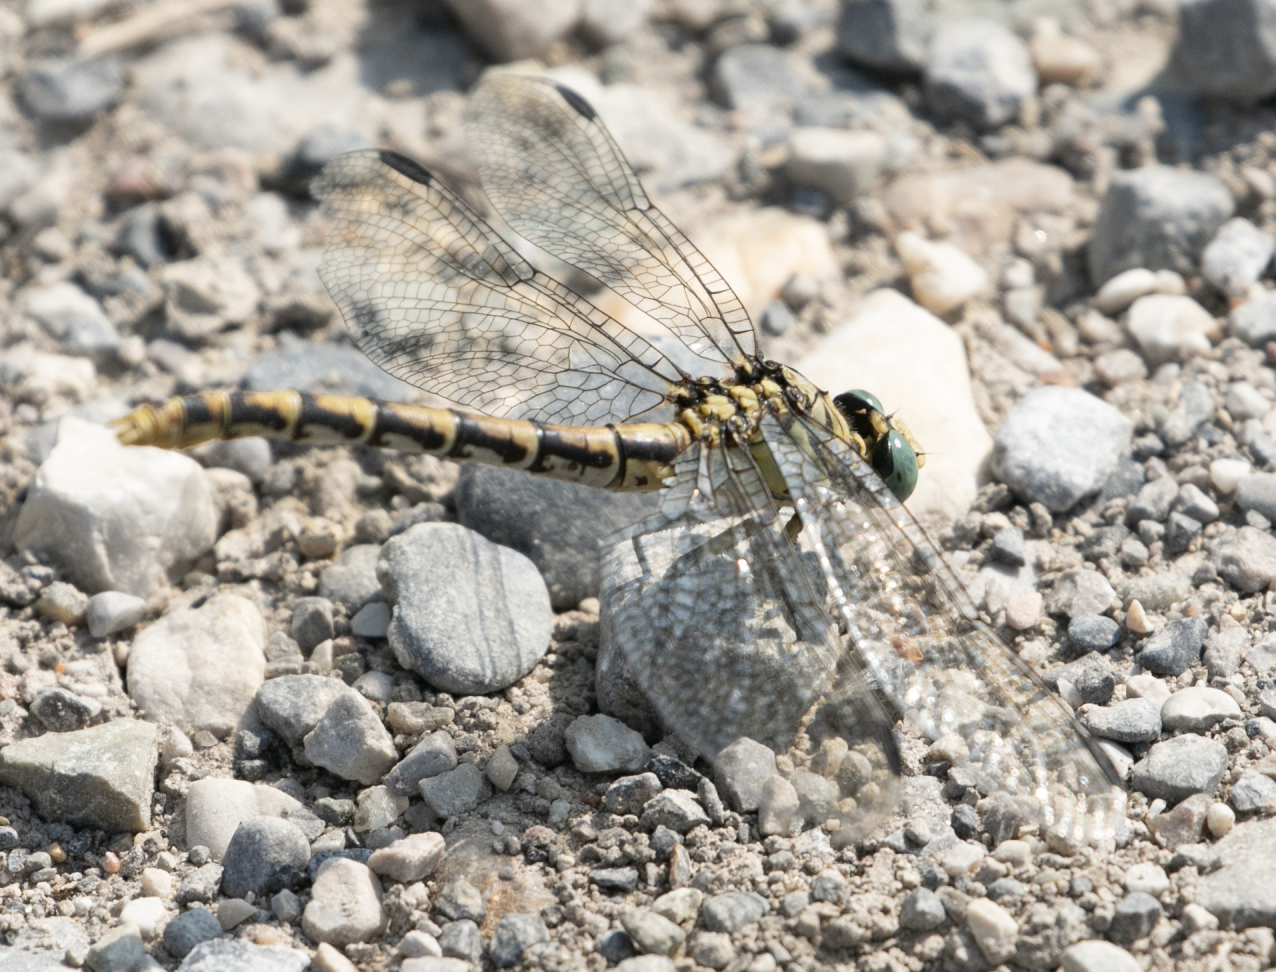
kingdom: Animalia
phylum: Arthropoda
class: Insecta
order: Odonata
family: Gomphidae
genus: Onychogomphus
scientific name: Onychogomphus forcipatus
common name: Small pincertail
